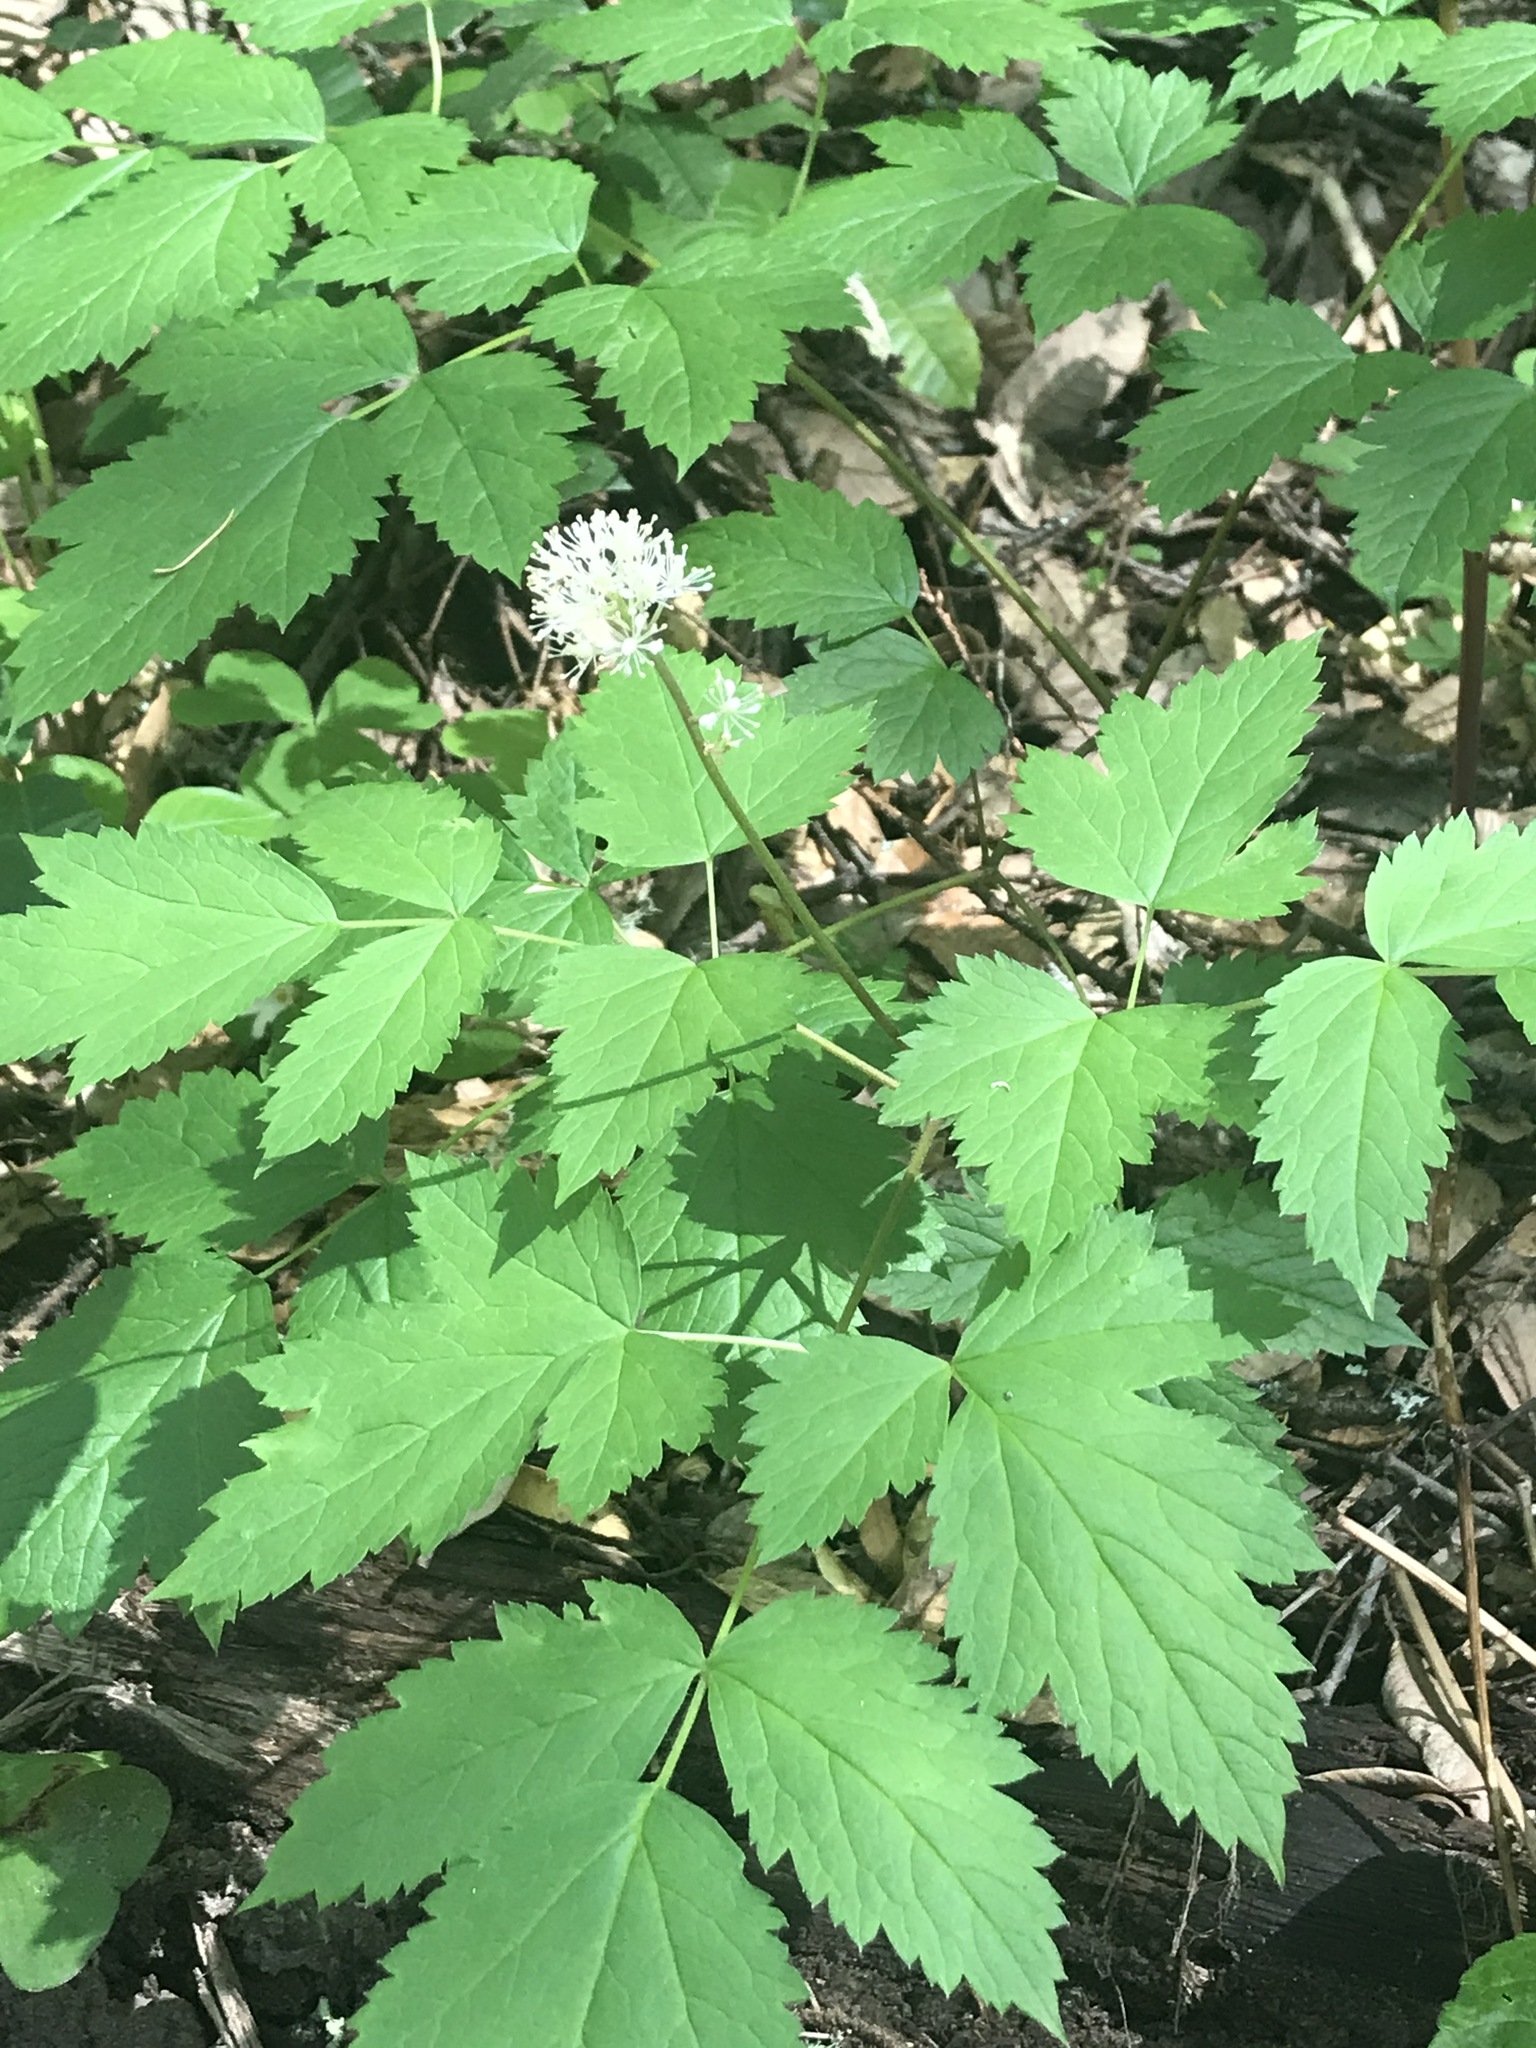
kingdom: Plantae
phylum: Tracheophyta
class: Magnoliopsida
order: Ranunculales
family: Ranunculaceae
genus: Actaea
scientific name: Actaea rubra
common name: Red baneberry
